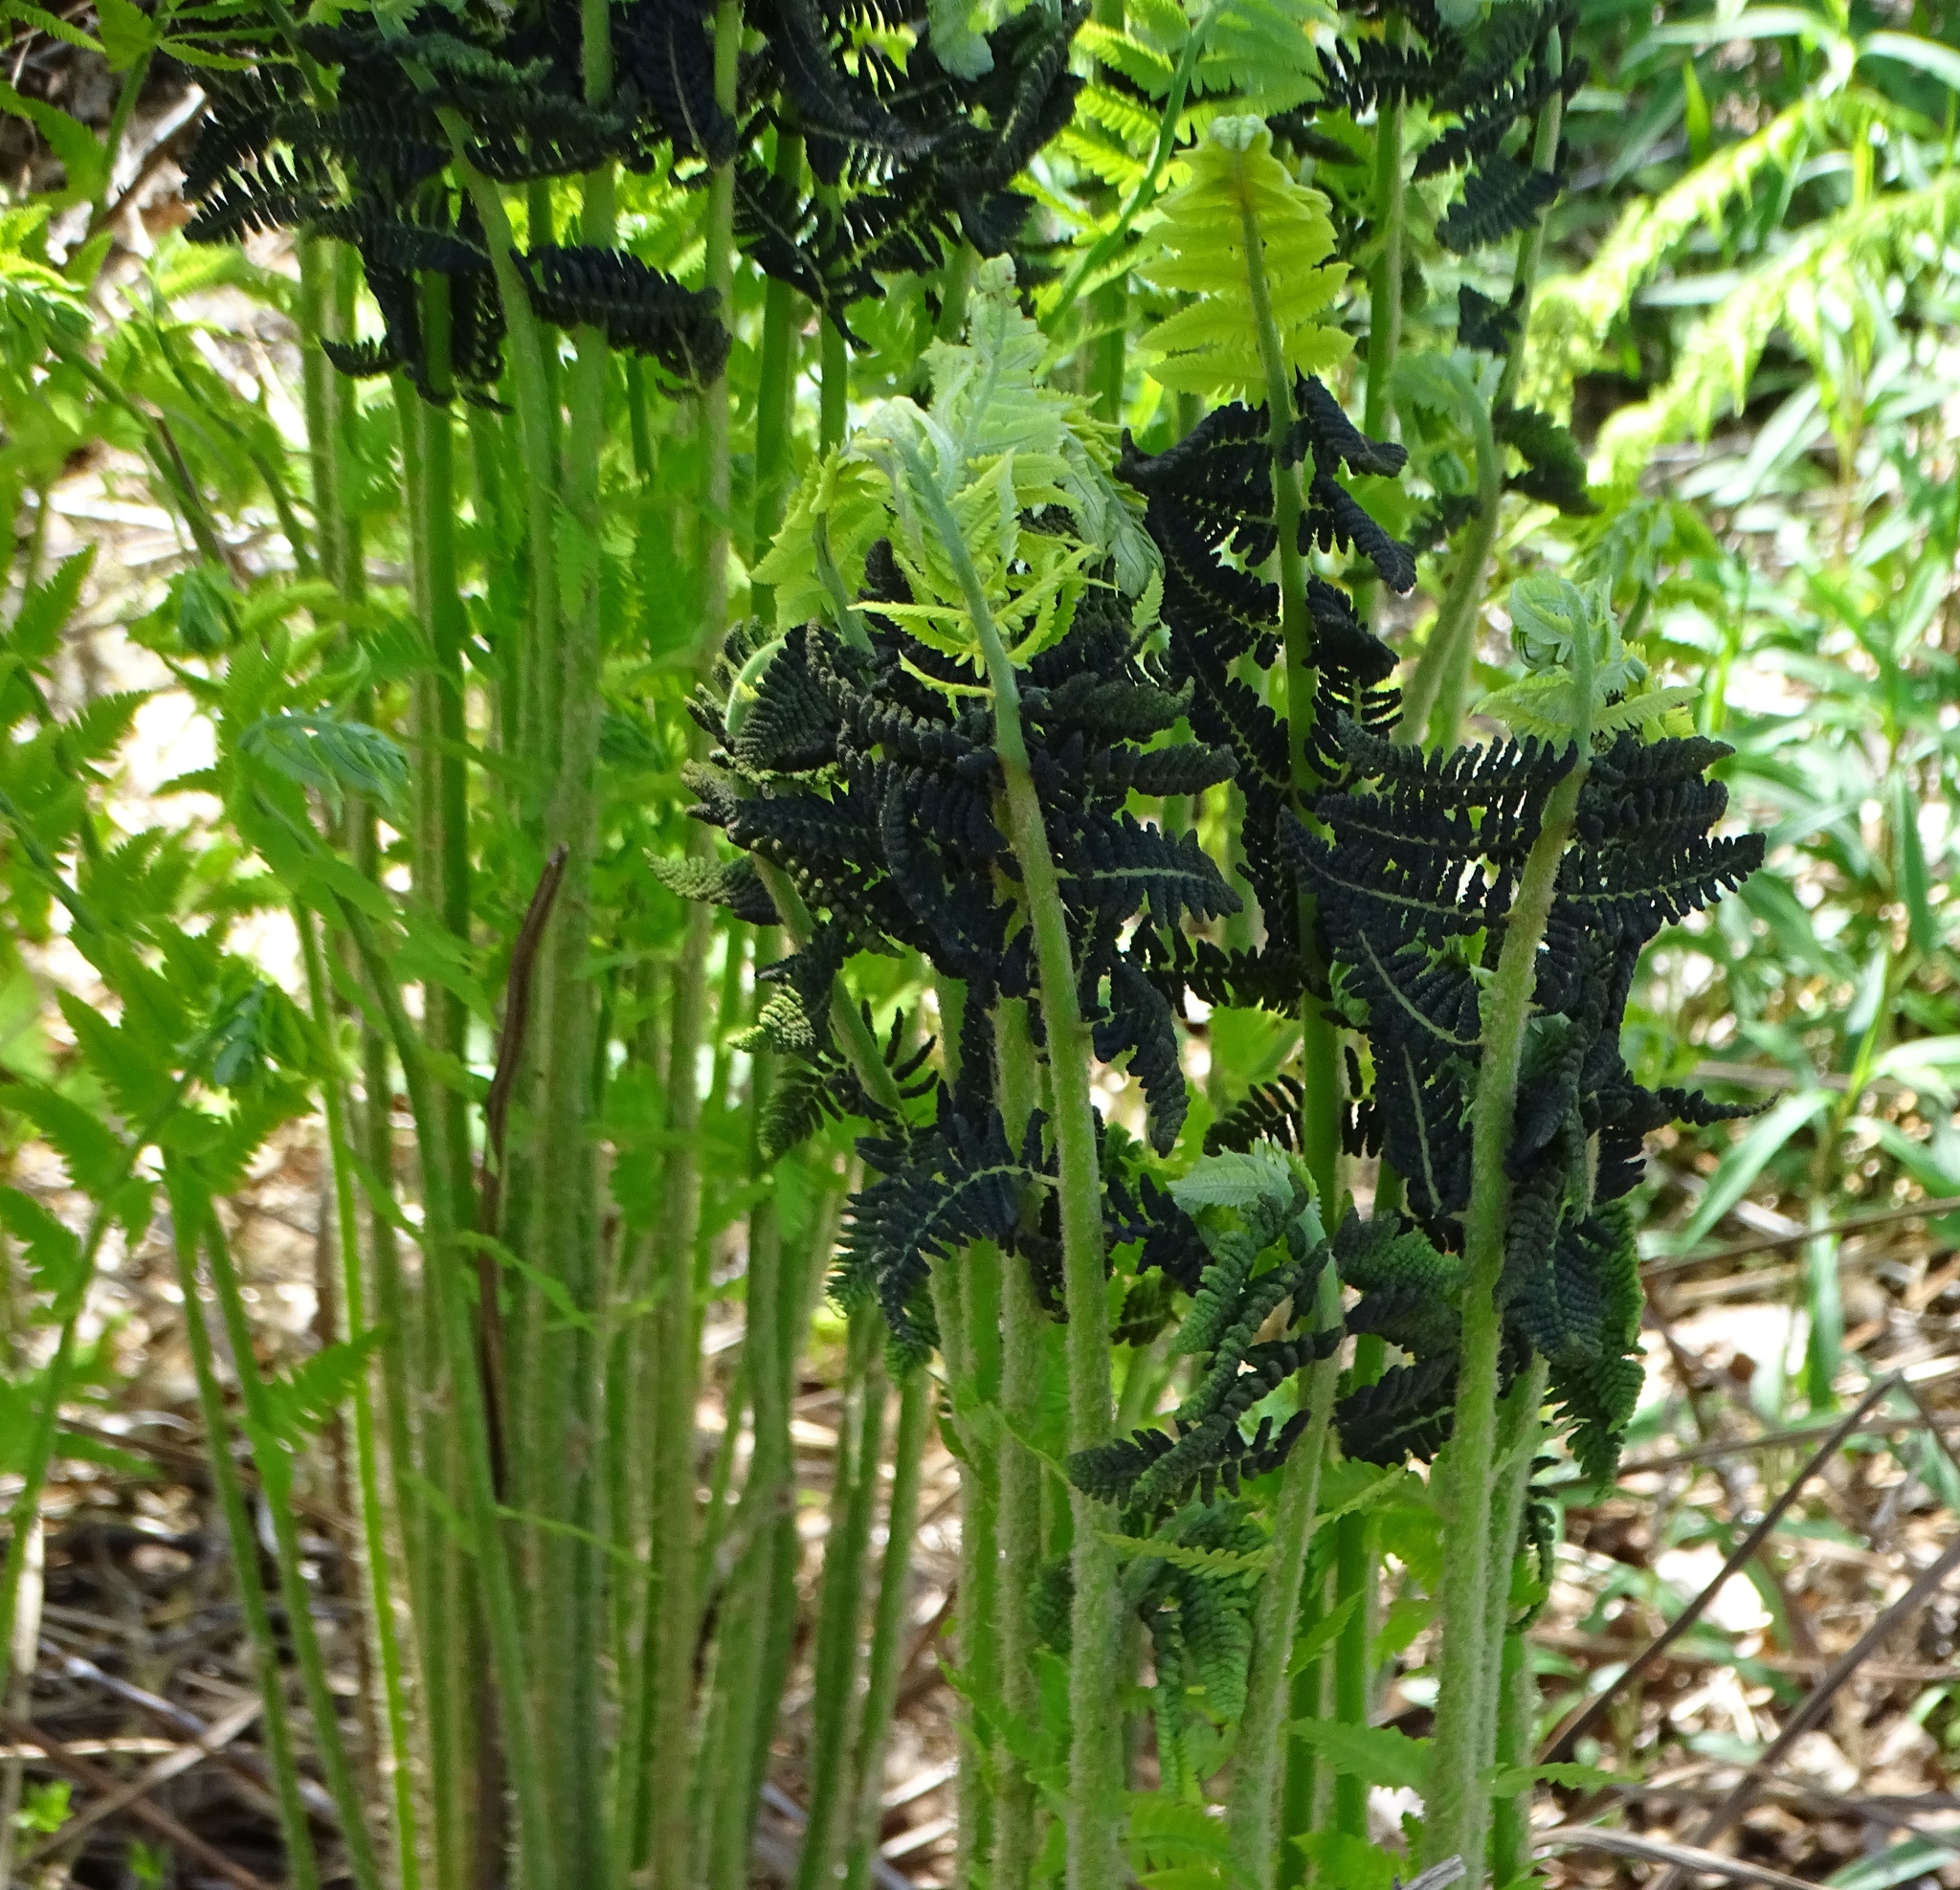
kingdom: Plantae
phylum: Tracheophyta
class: Polypodiopsida
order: Osmundales
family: Osmundaceae
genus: Claytosmunda
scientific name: Claytosmunda claytoniana
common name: Clayton's fern
